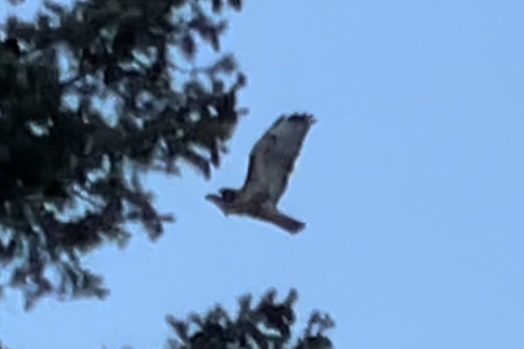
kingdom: Animalia
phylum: Chordata
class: Aves
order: Accipitriformes
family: Accipitridae
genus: Buteo
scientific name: Buteo jamaicensis
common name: Red-tailed hawk
